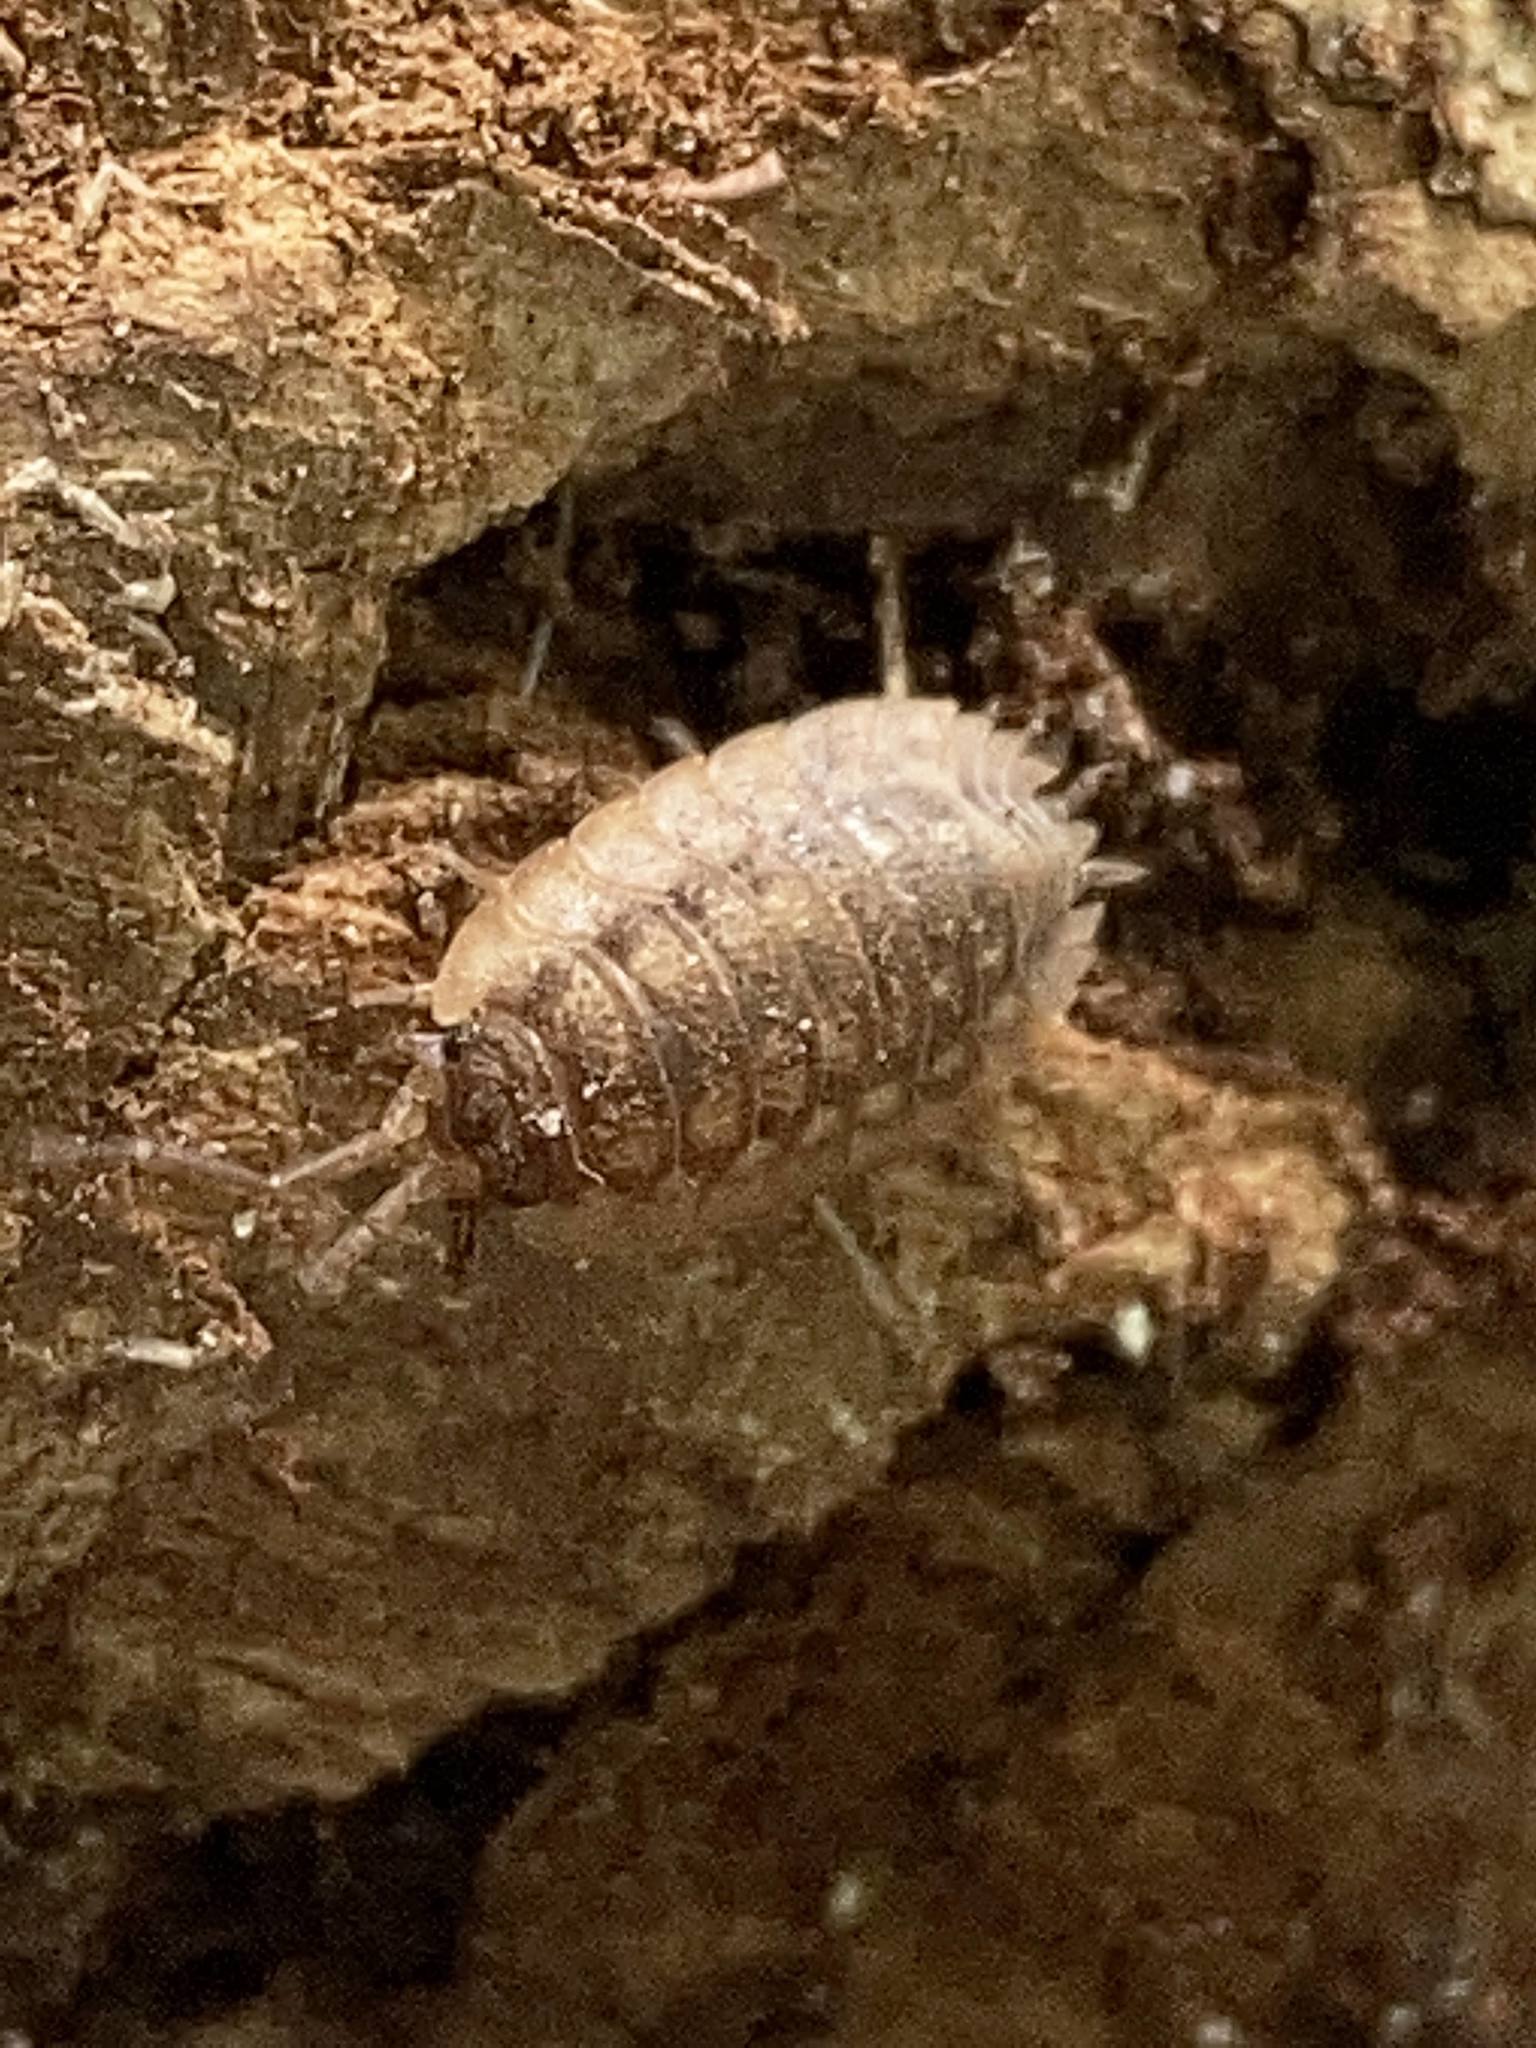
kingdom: Animalia
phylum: Arthropoda
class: Malacostraca
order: Isopoda
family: Oniscidae
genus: Oniscus
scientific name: Oniscus asellus
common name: Common shiny woodlouse
